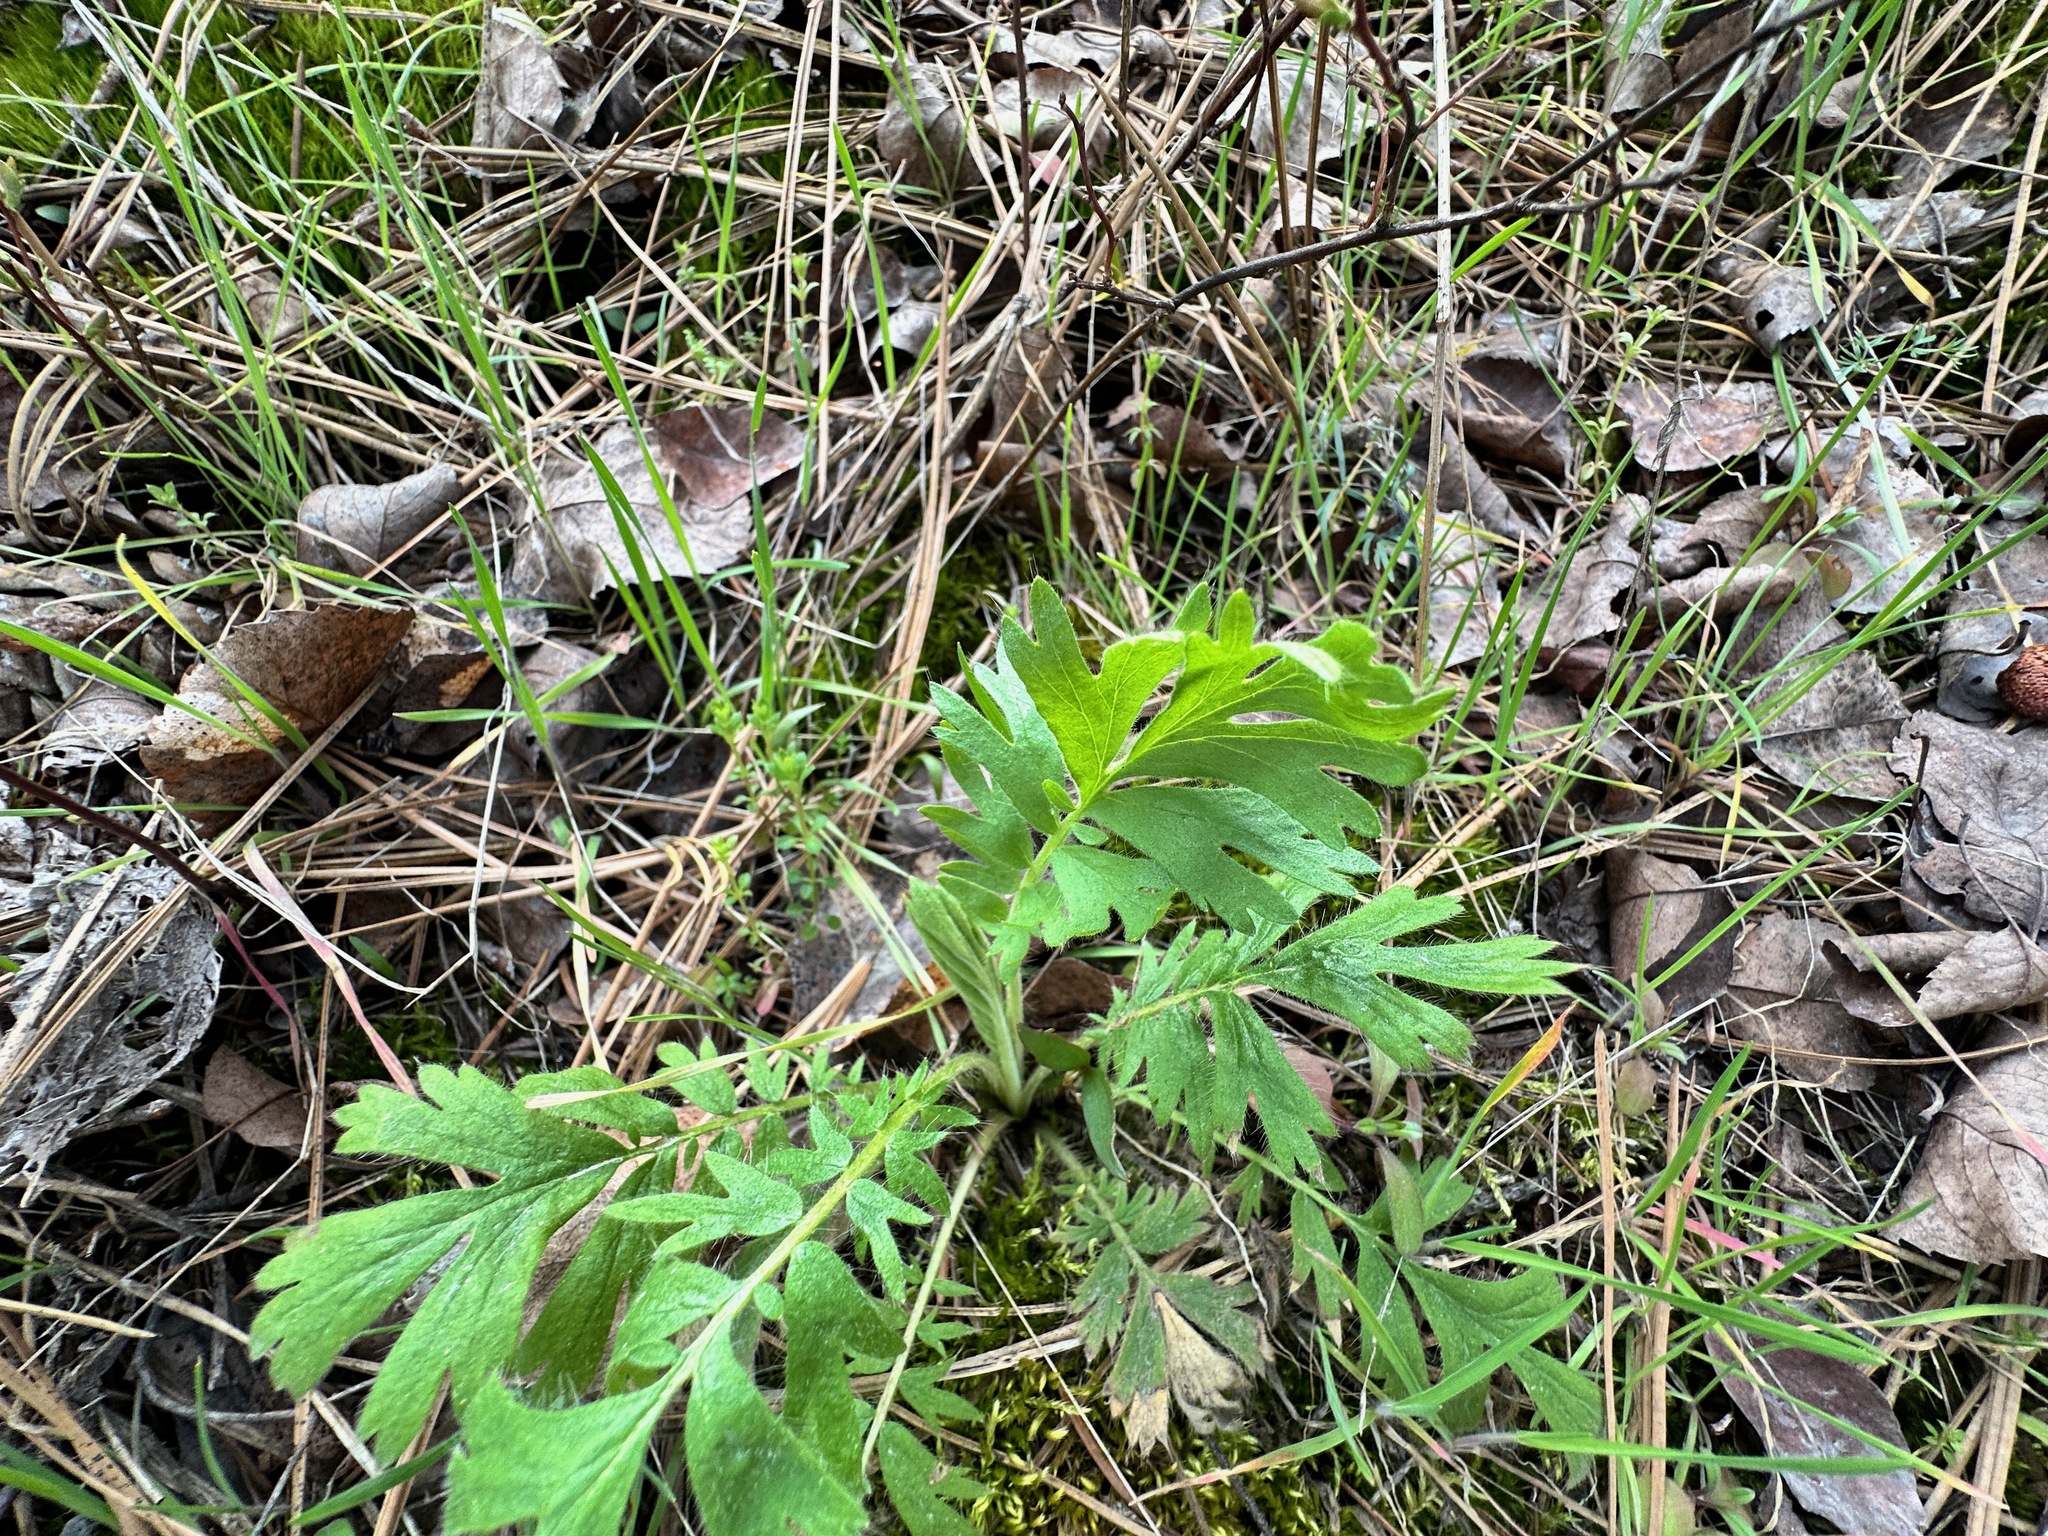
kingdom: Plantae
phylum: Tracheophyta
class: Magnoliopsida
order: Rosales
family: Rosaceae
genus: Geum
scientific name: Geum triflorum
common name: Old man's whiskers
